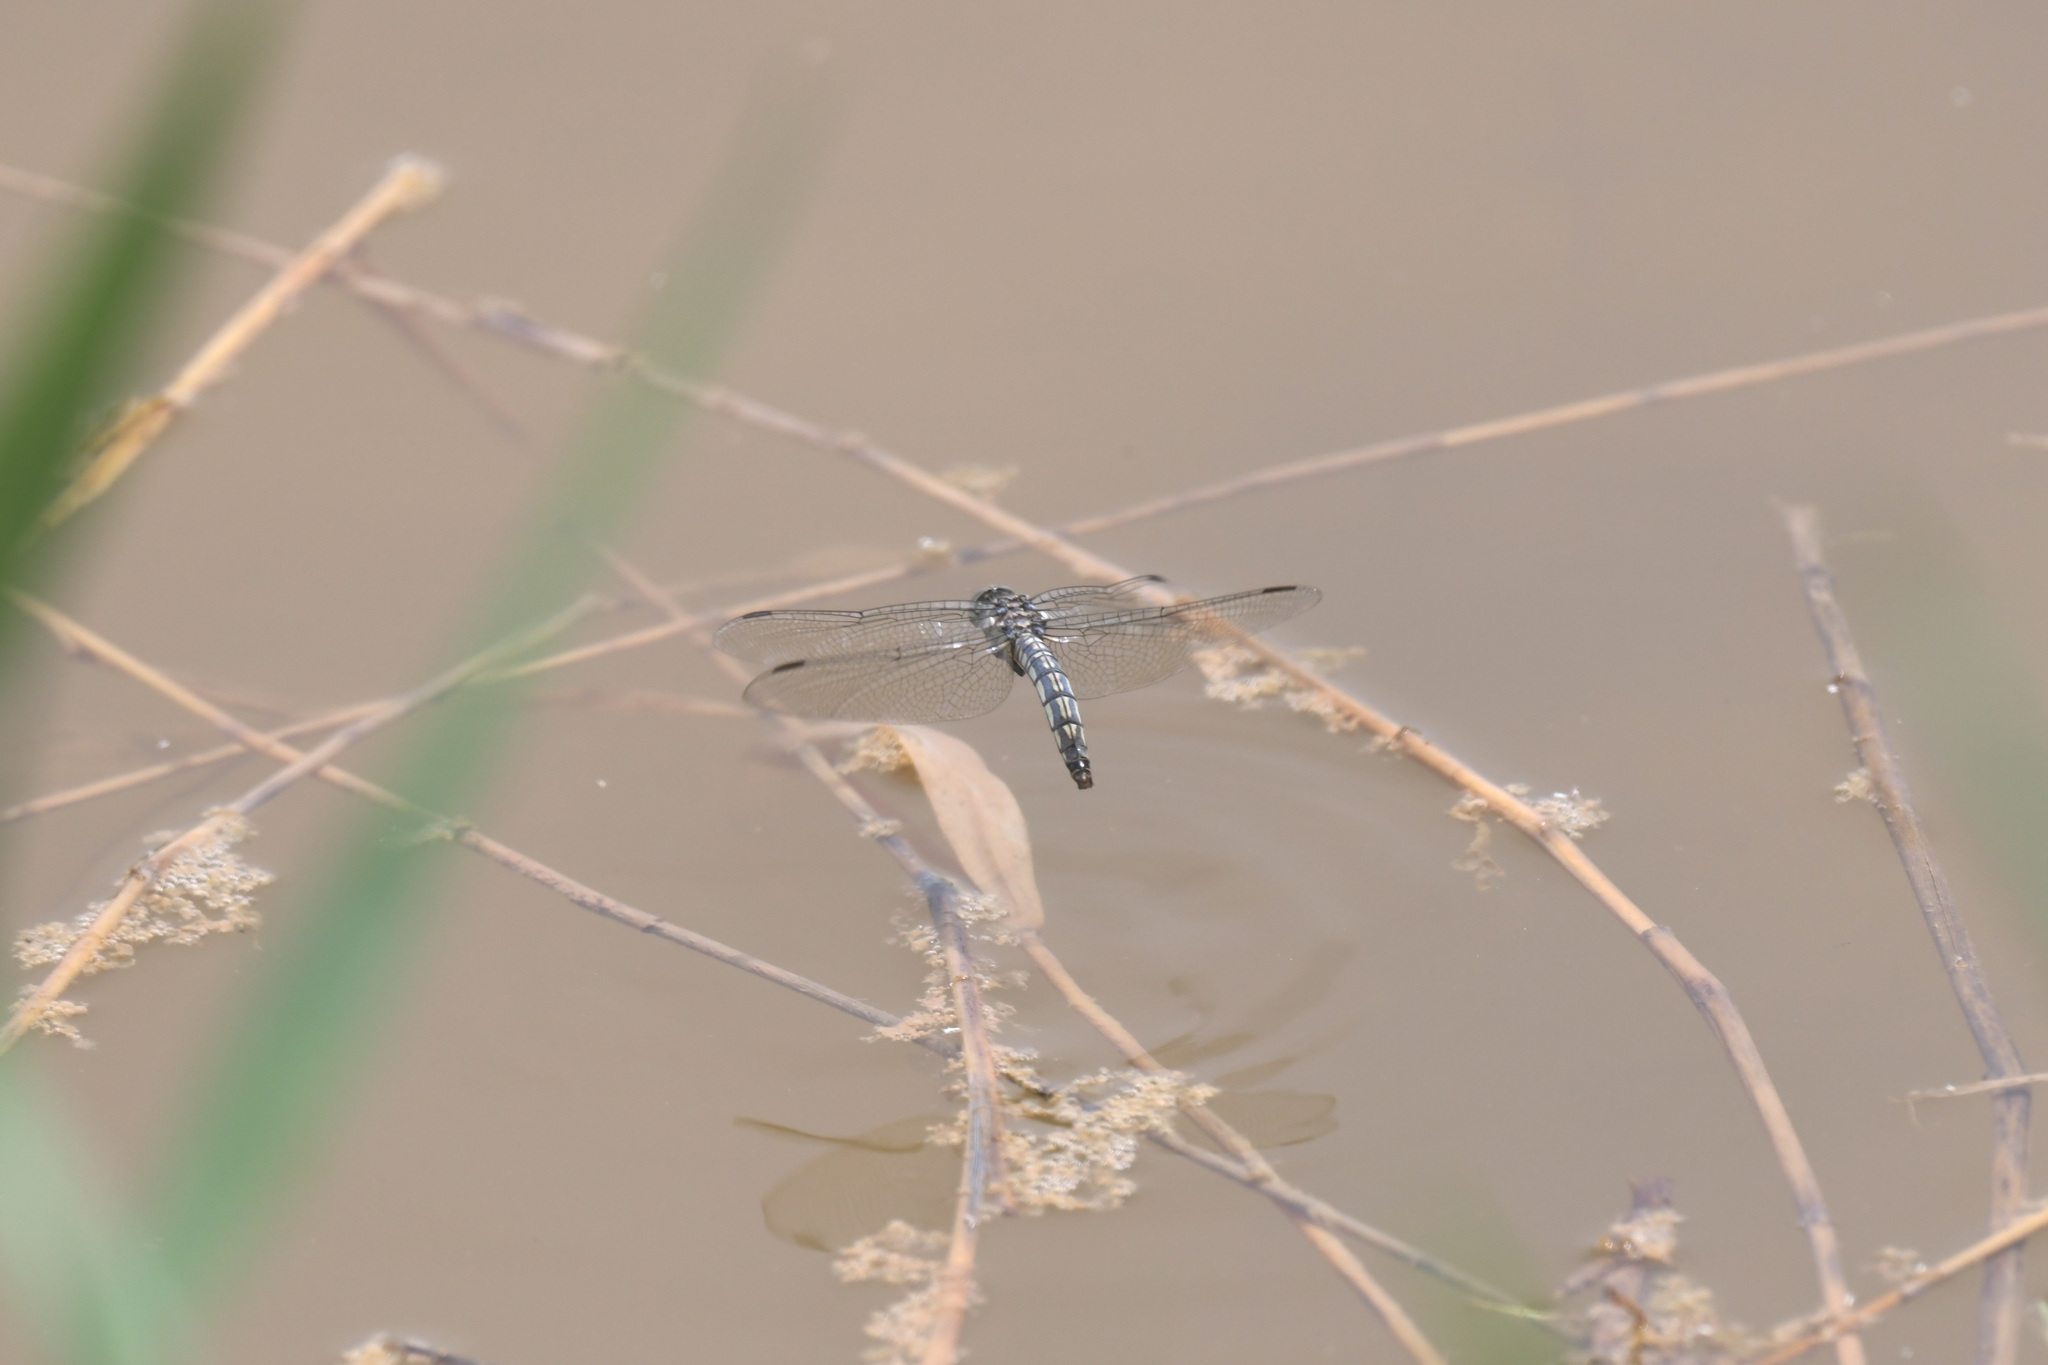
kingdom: Animalia
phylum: Arthropoda
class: Insecta
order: Odonata
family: Libellulidae
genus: Deielia
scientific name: Deielia phaon
